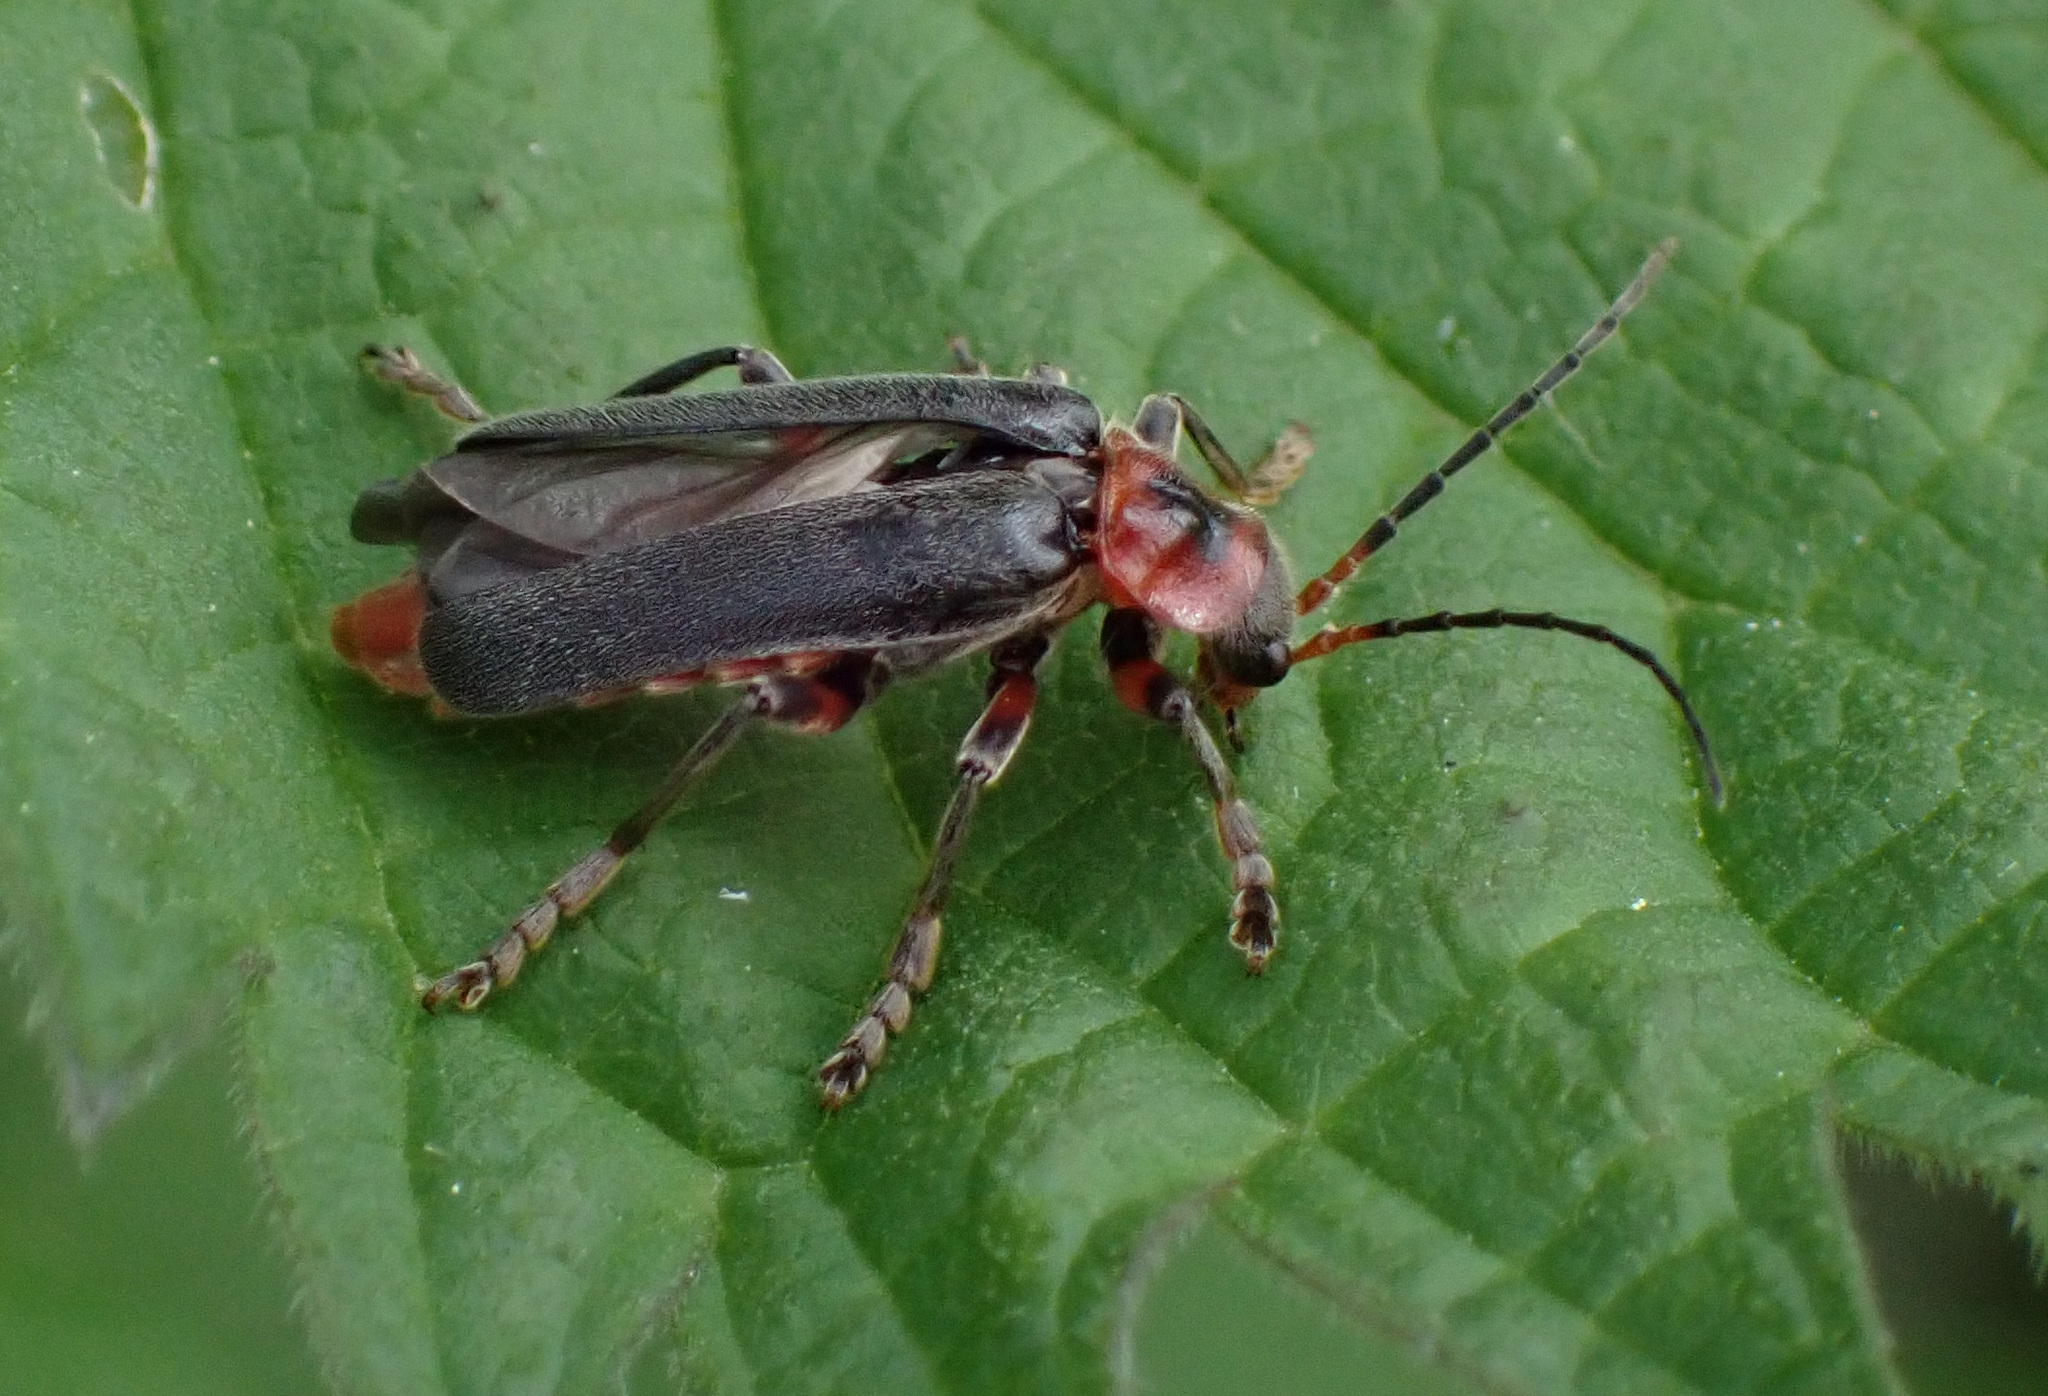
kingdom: Animalia
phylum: Arthropoda
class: Insecta
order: Coleoptera
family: Cantharidae
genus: Cantharis
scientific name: Cantharis rustica
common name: Soldier beetle
